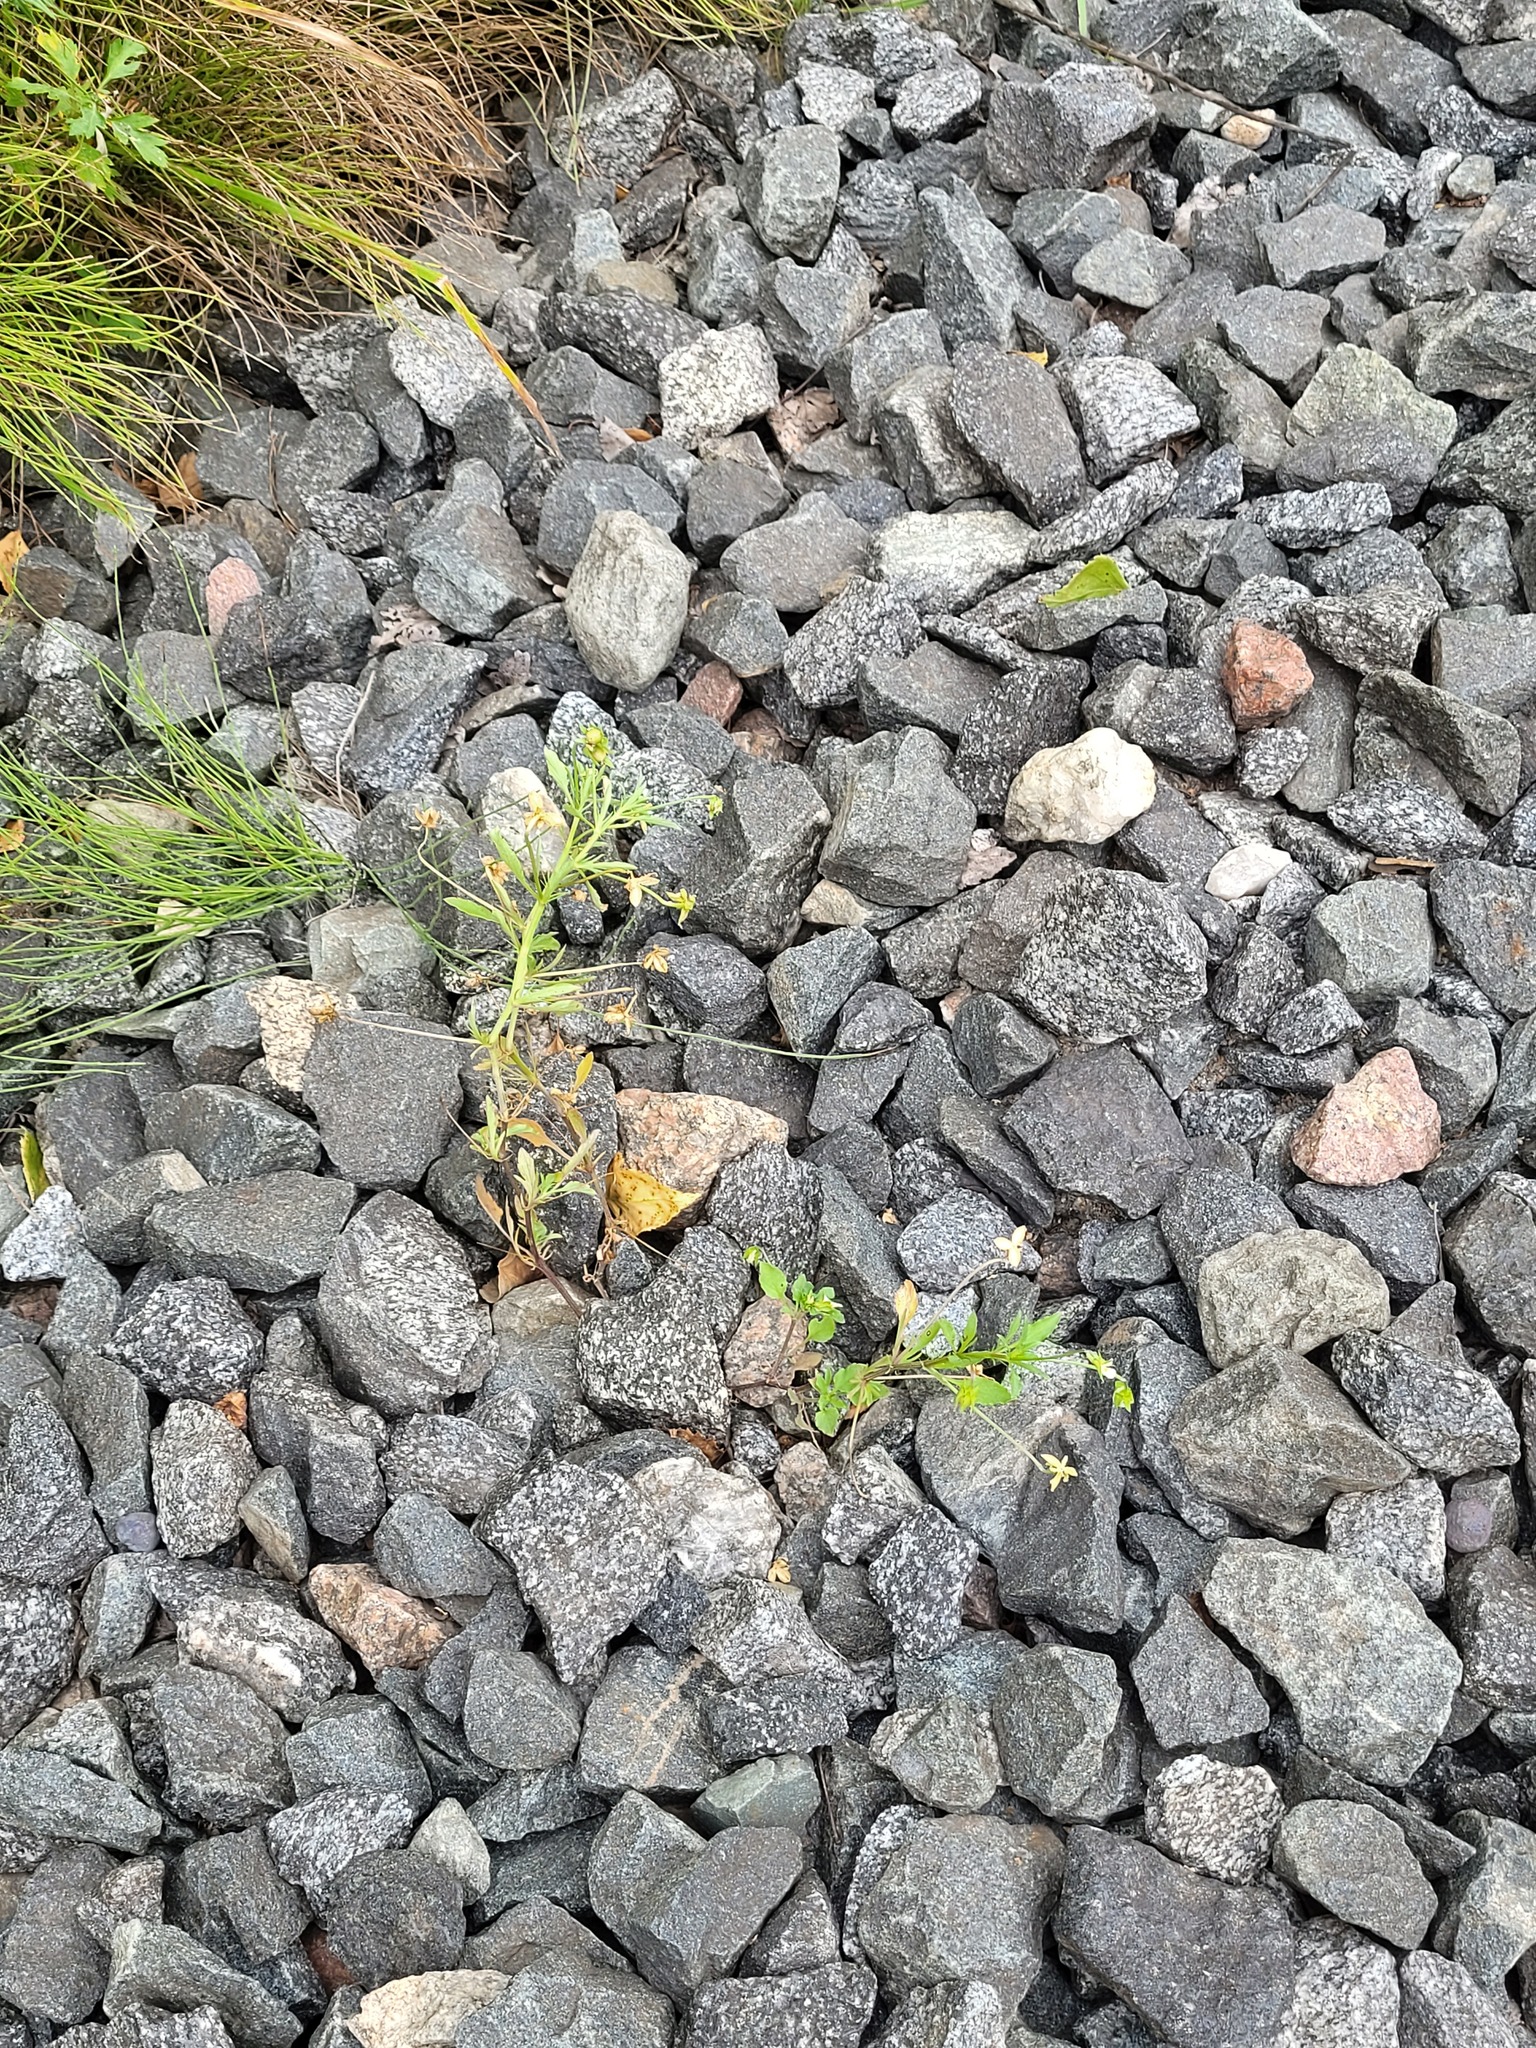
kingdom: Plantae
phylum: Tracheophyta
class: Magnoliopsida
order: Malpighiales
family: Violaceae
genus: Viola
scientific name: Viola arvensis
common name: Field pansy
